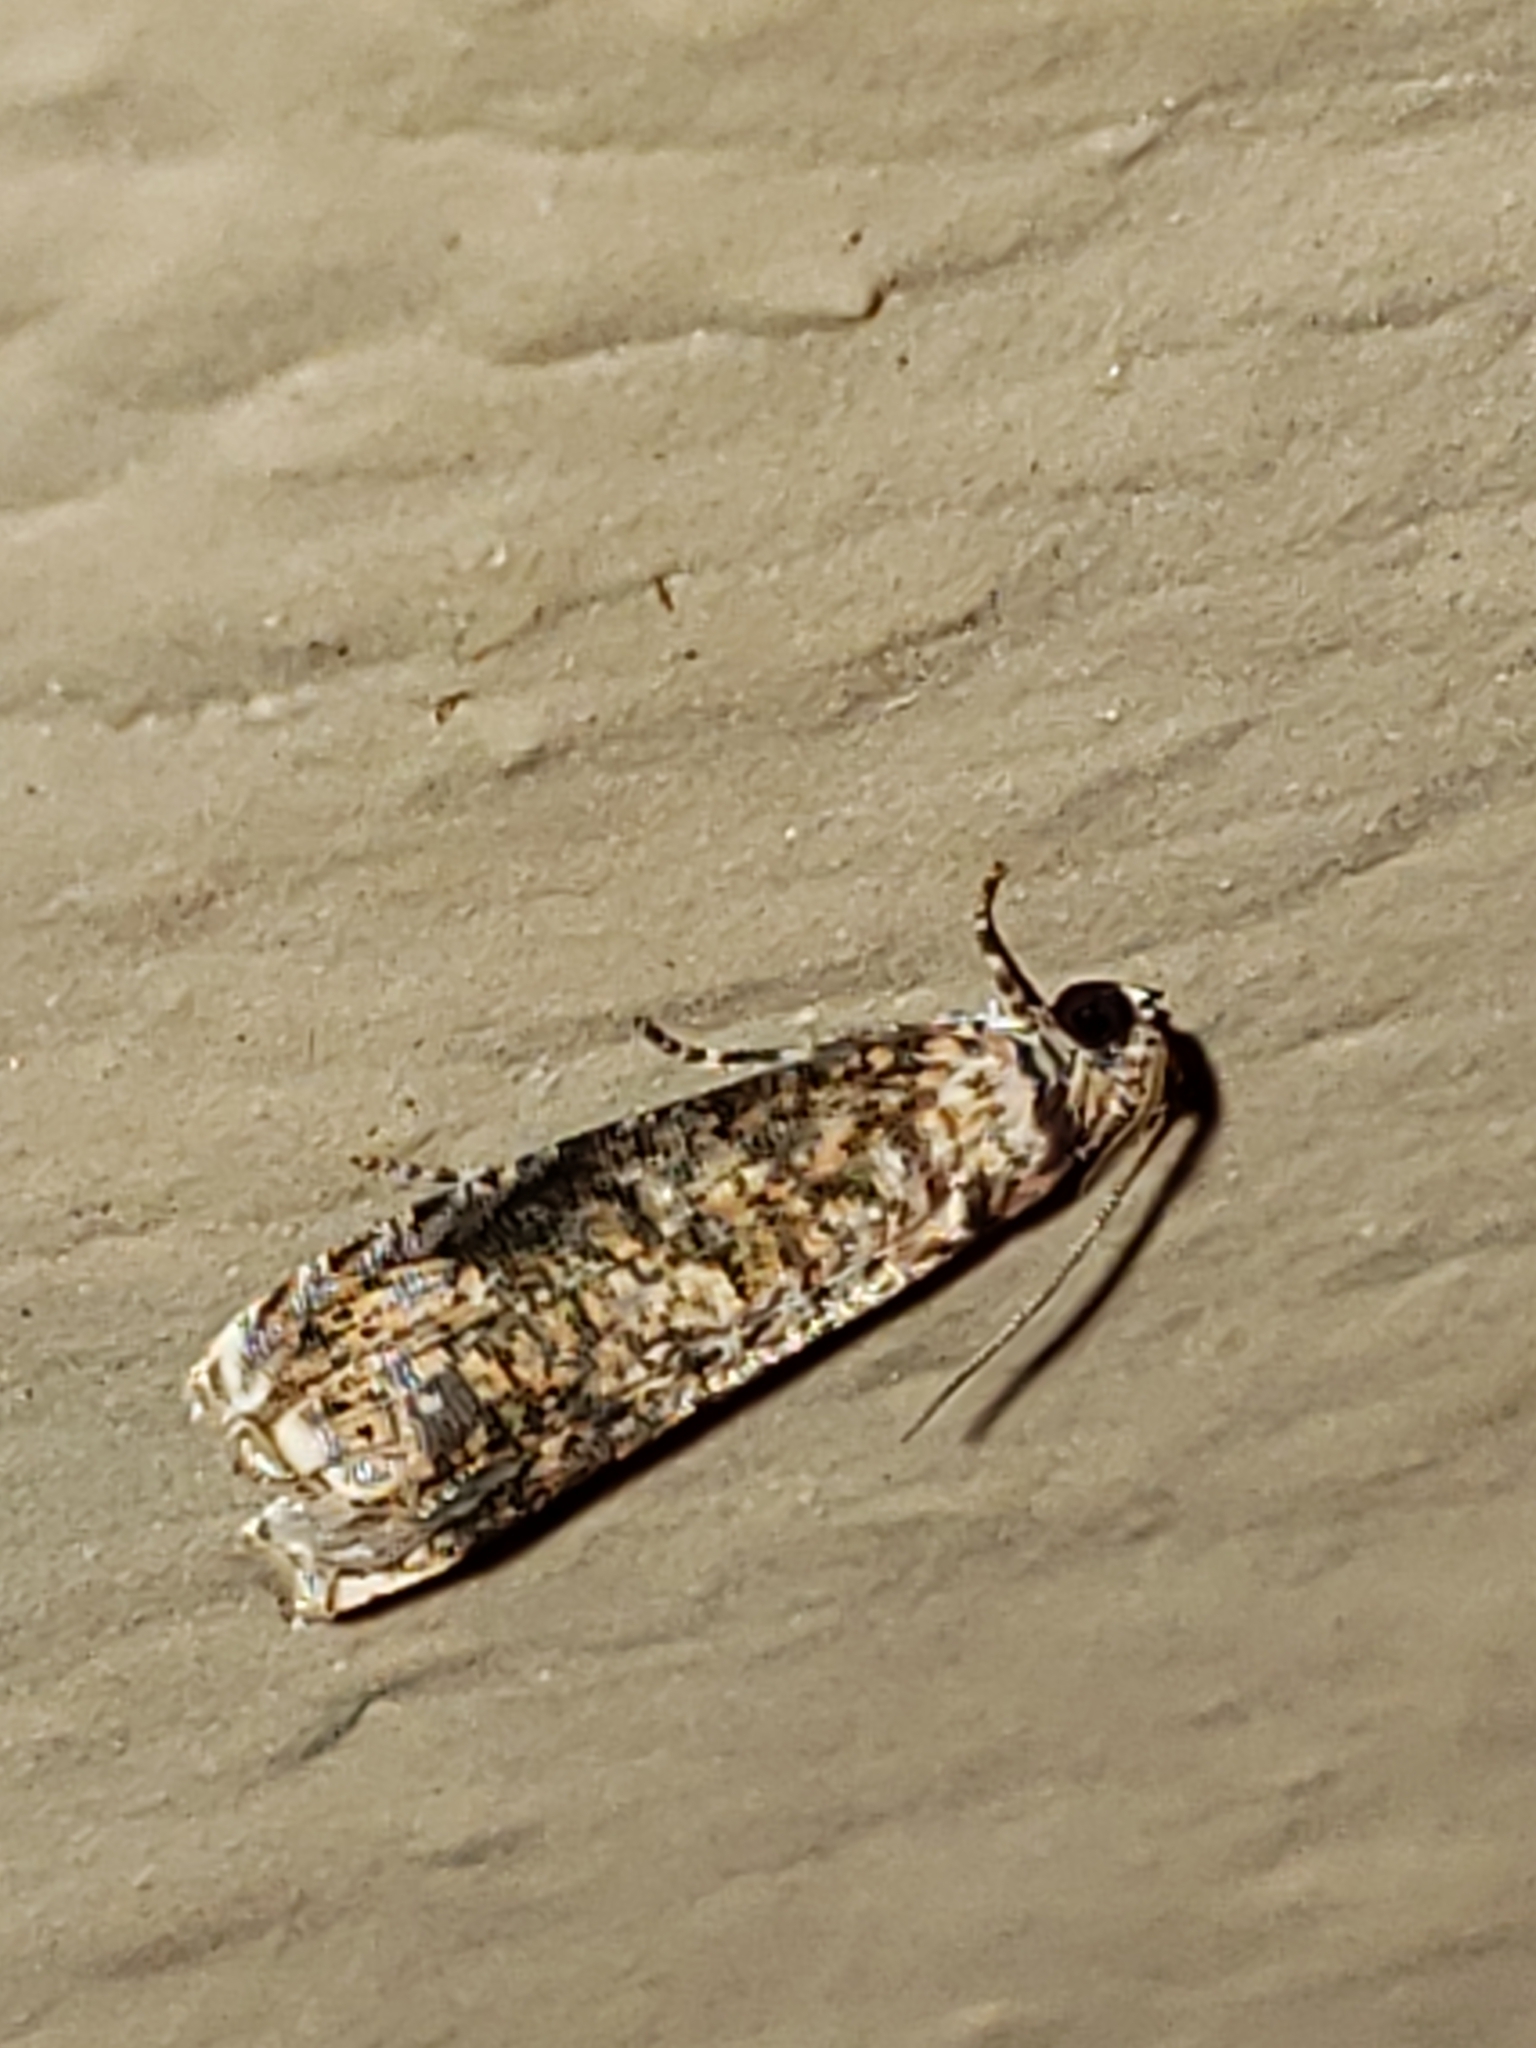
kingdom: Animalia
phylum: Arthropoda
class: Insecta
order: Lepidoptera
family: Tortricidae
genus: Episimus
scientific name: Episimus argutana
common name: Sumac leaftier moth
